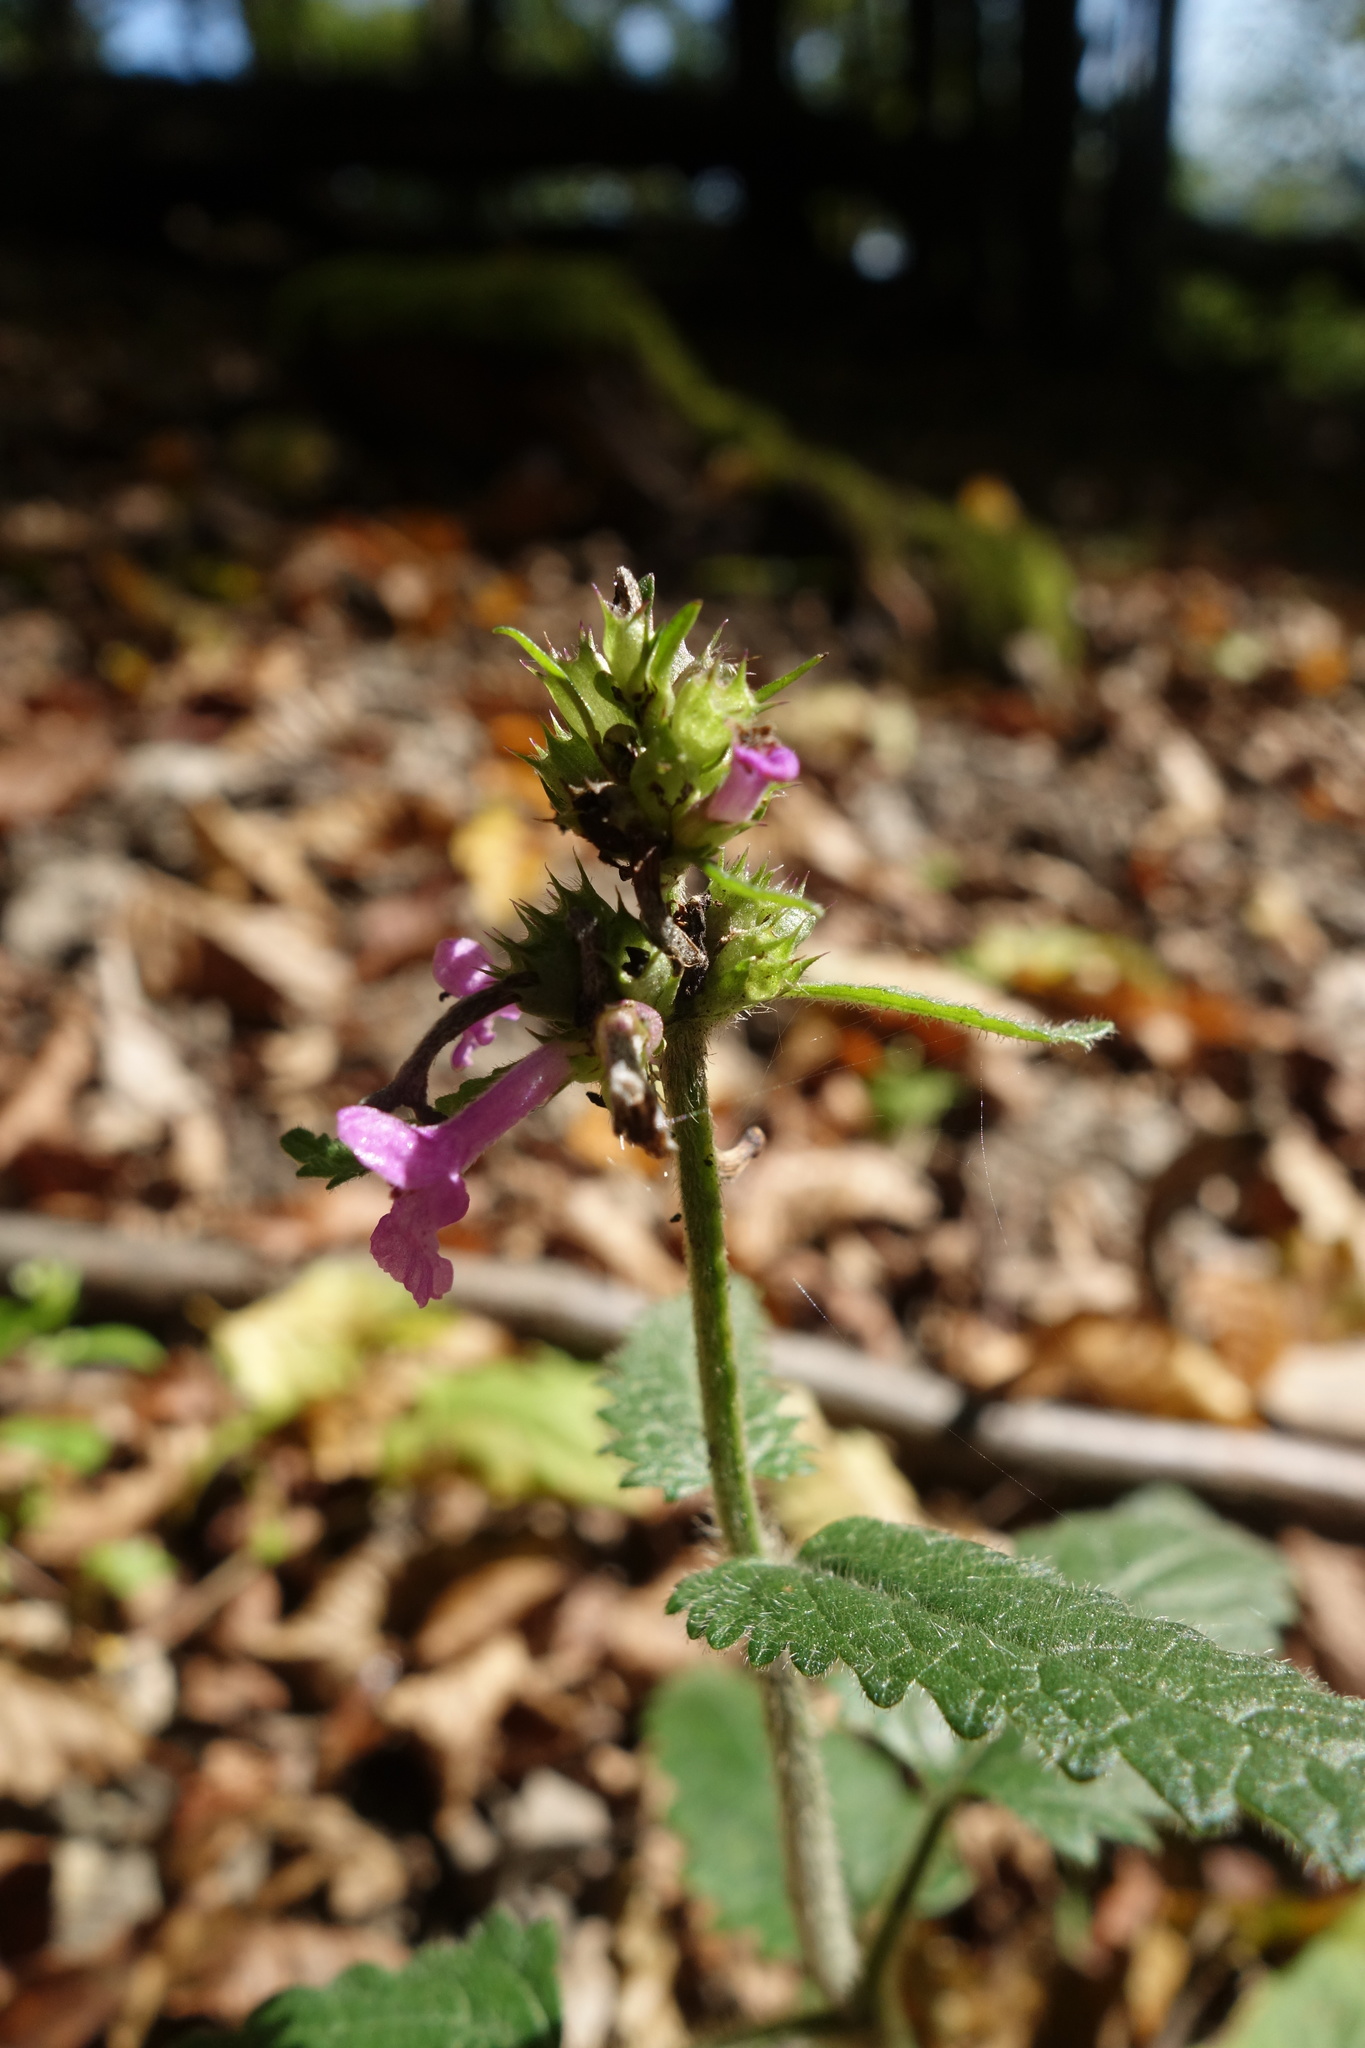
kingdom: Plantae
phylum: Tracheophyta
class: Magnoliopsida
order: Lamiales
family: Lamiaceae
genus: Betonica
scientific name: Betonica officinalis
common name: Bishop's-wort
